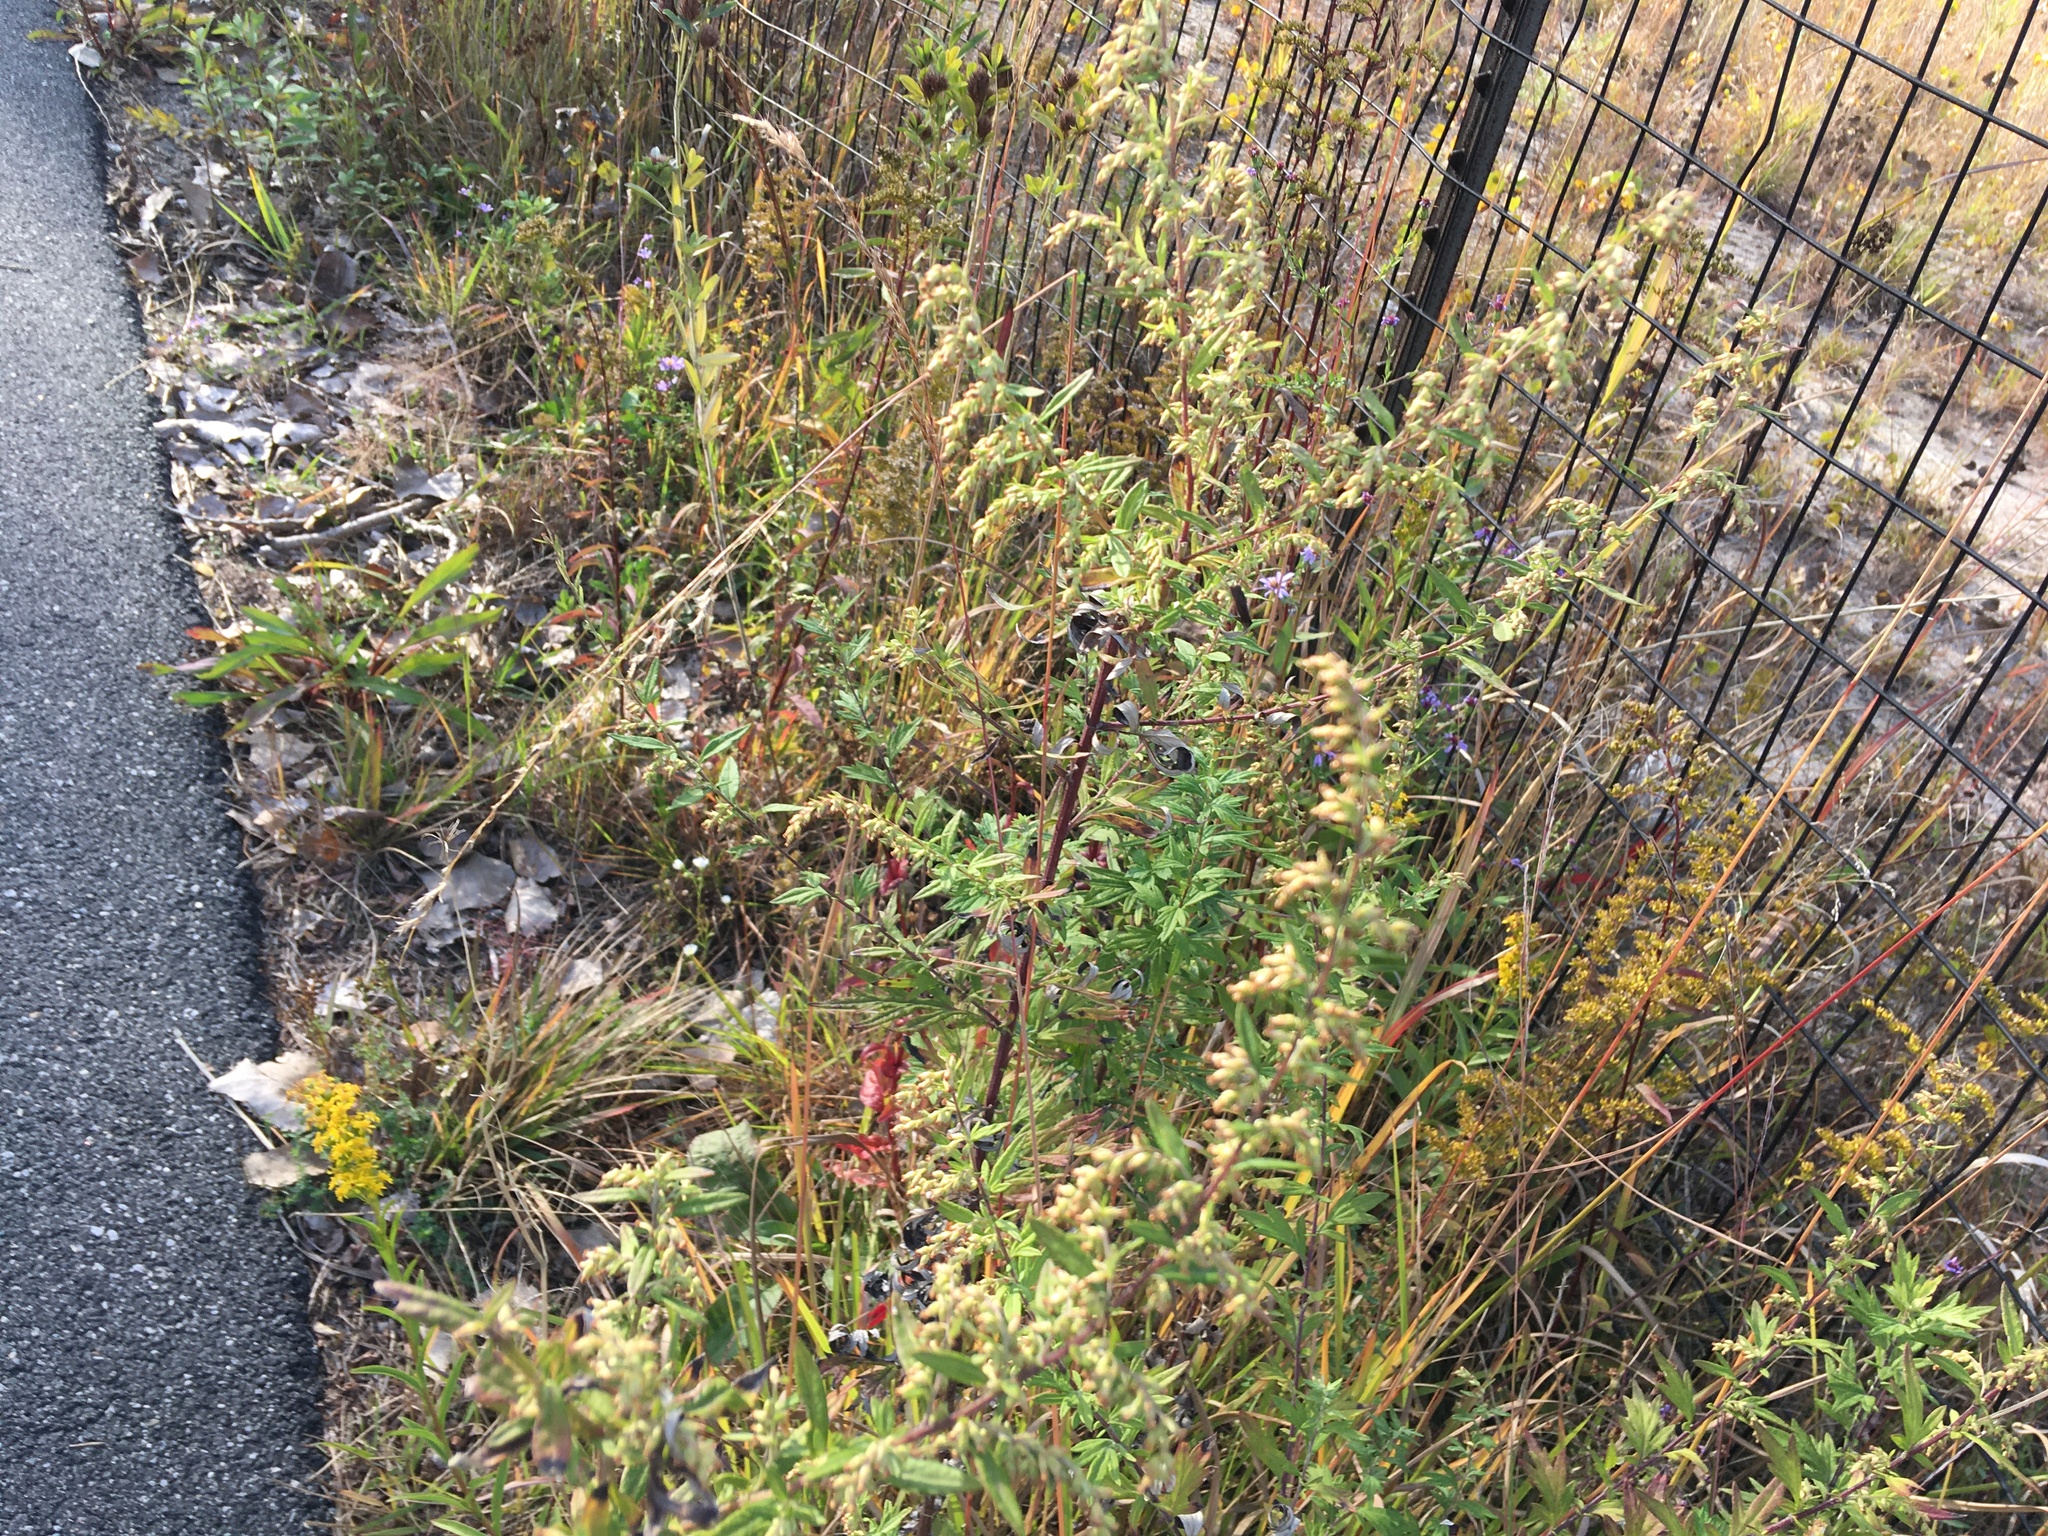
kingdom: Plantae
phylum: Tracheophyta
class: Magnoliopsida
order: Asterales
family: Asteraceae
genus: Artemisia
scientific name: Artemisia vulgaris
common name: Mugwort
